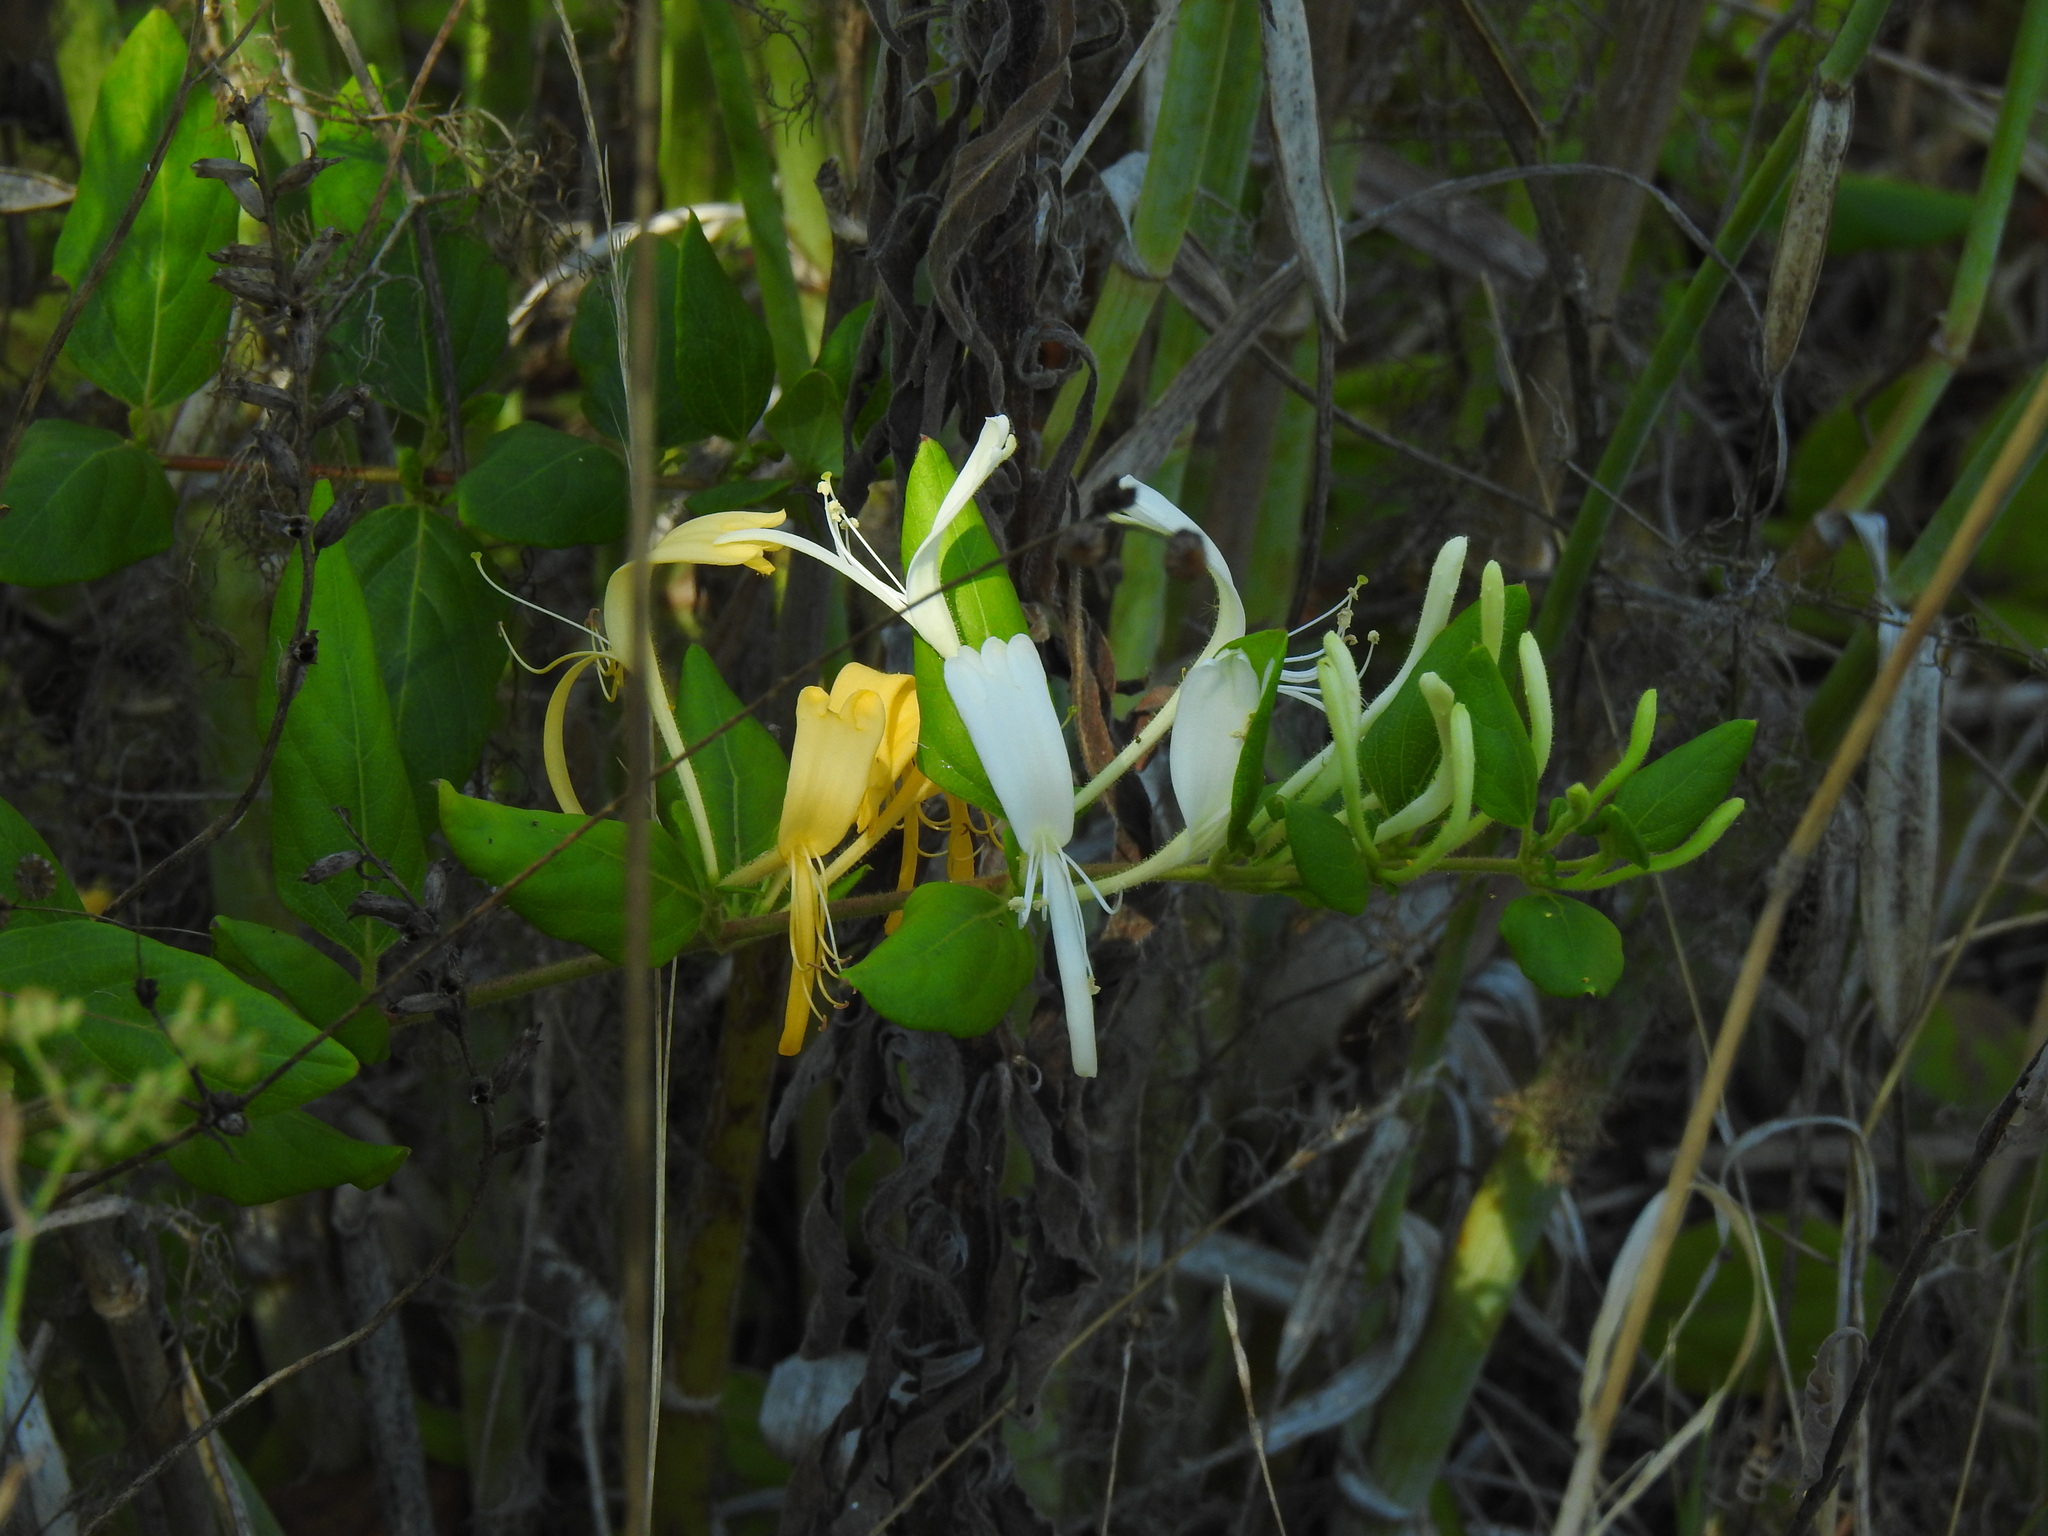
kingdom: Plantae
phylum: Tracheophyta
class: Magnoliopsida
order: Dipsacales
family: Caprifoliaceae
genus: Lonicera
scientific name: Lonicera japonica
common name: Japanese honeysuckle
